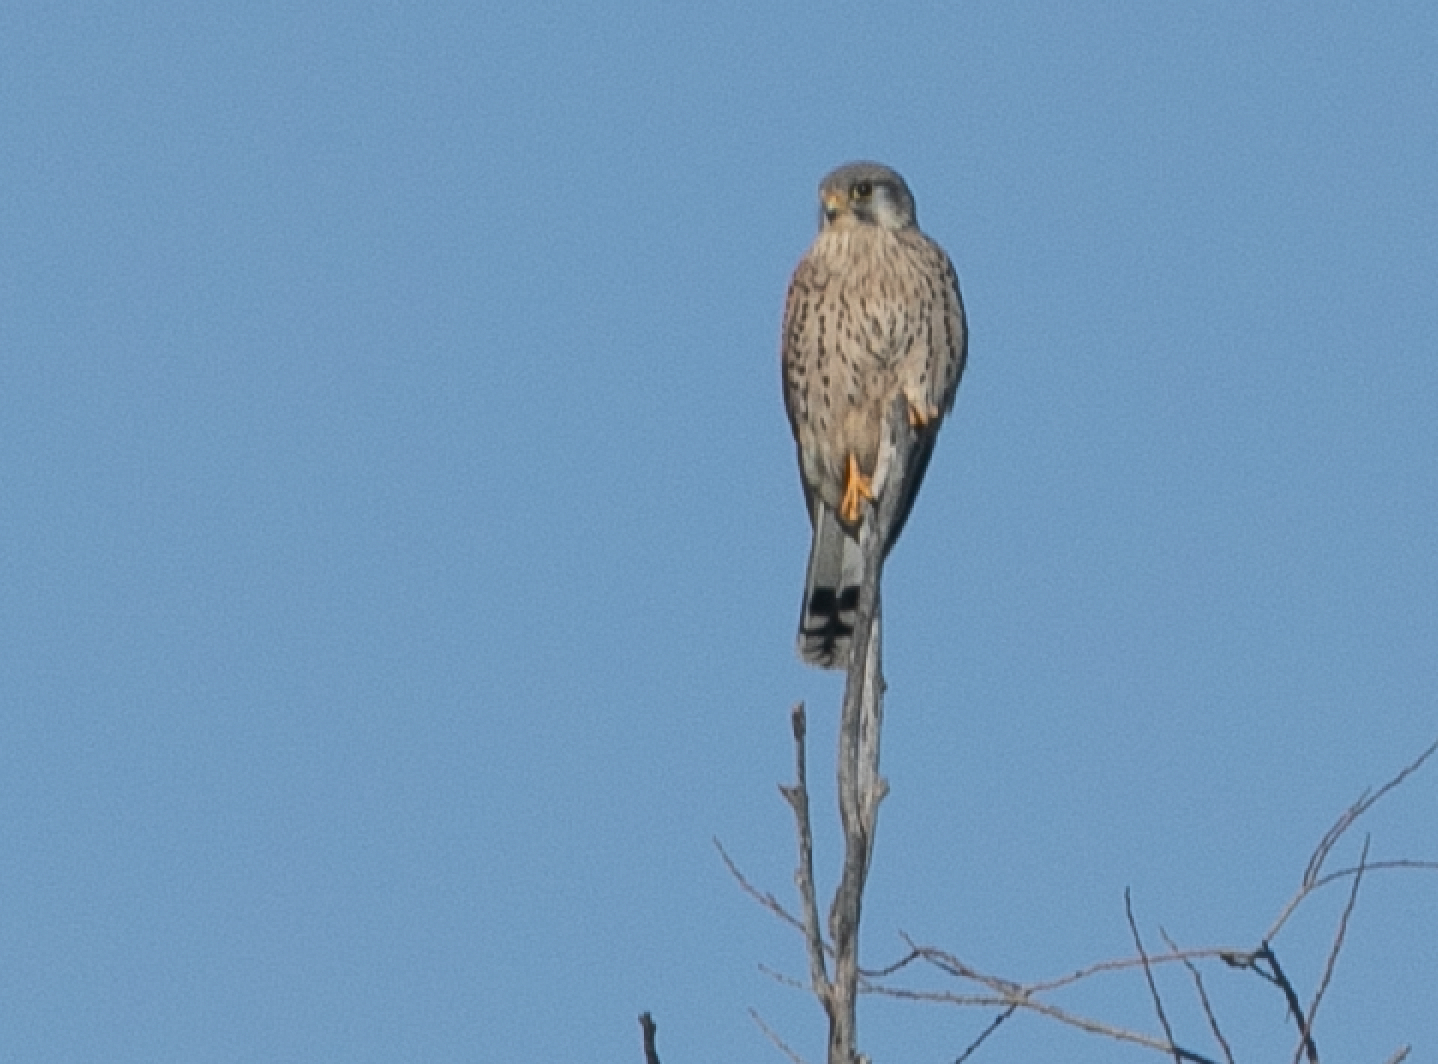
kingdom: Animalia
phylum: Chordata
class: Aves
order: Falconiformes
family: Falconidae
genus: Falco
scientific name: Falco tinnunculus
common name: Common kestrel
